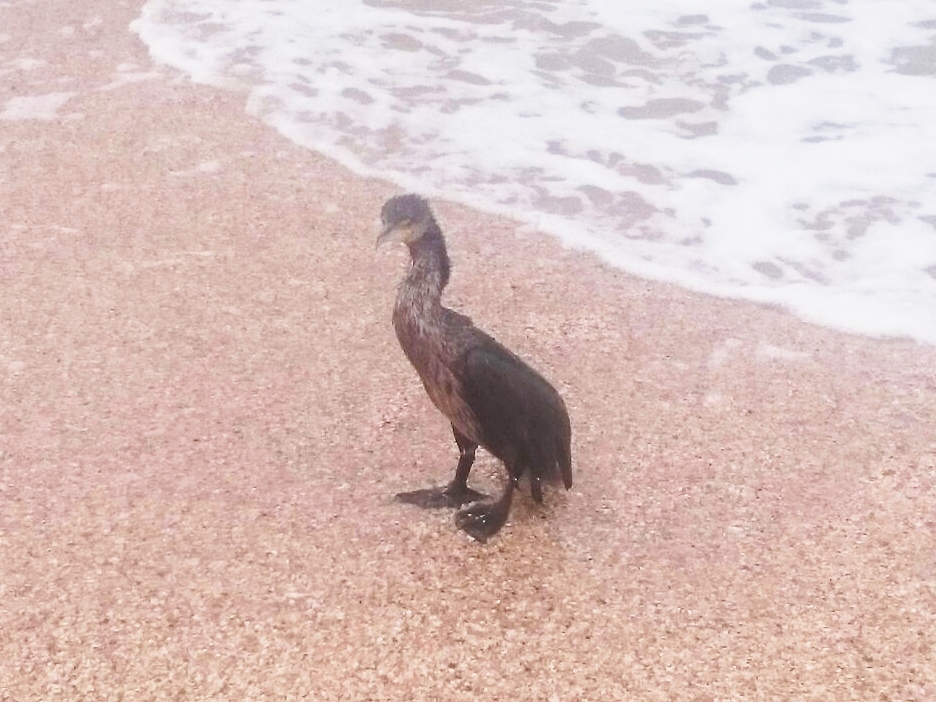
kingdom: Animalia
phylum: Chordata
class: Aves
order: Suliformes
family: Phalacrocoracidae
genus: Phalacrocorax
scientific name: Phalacrocorax carbo
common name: Great cormorant
